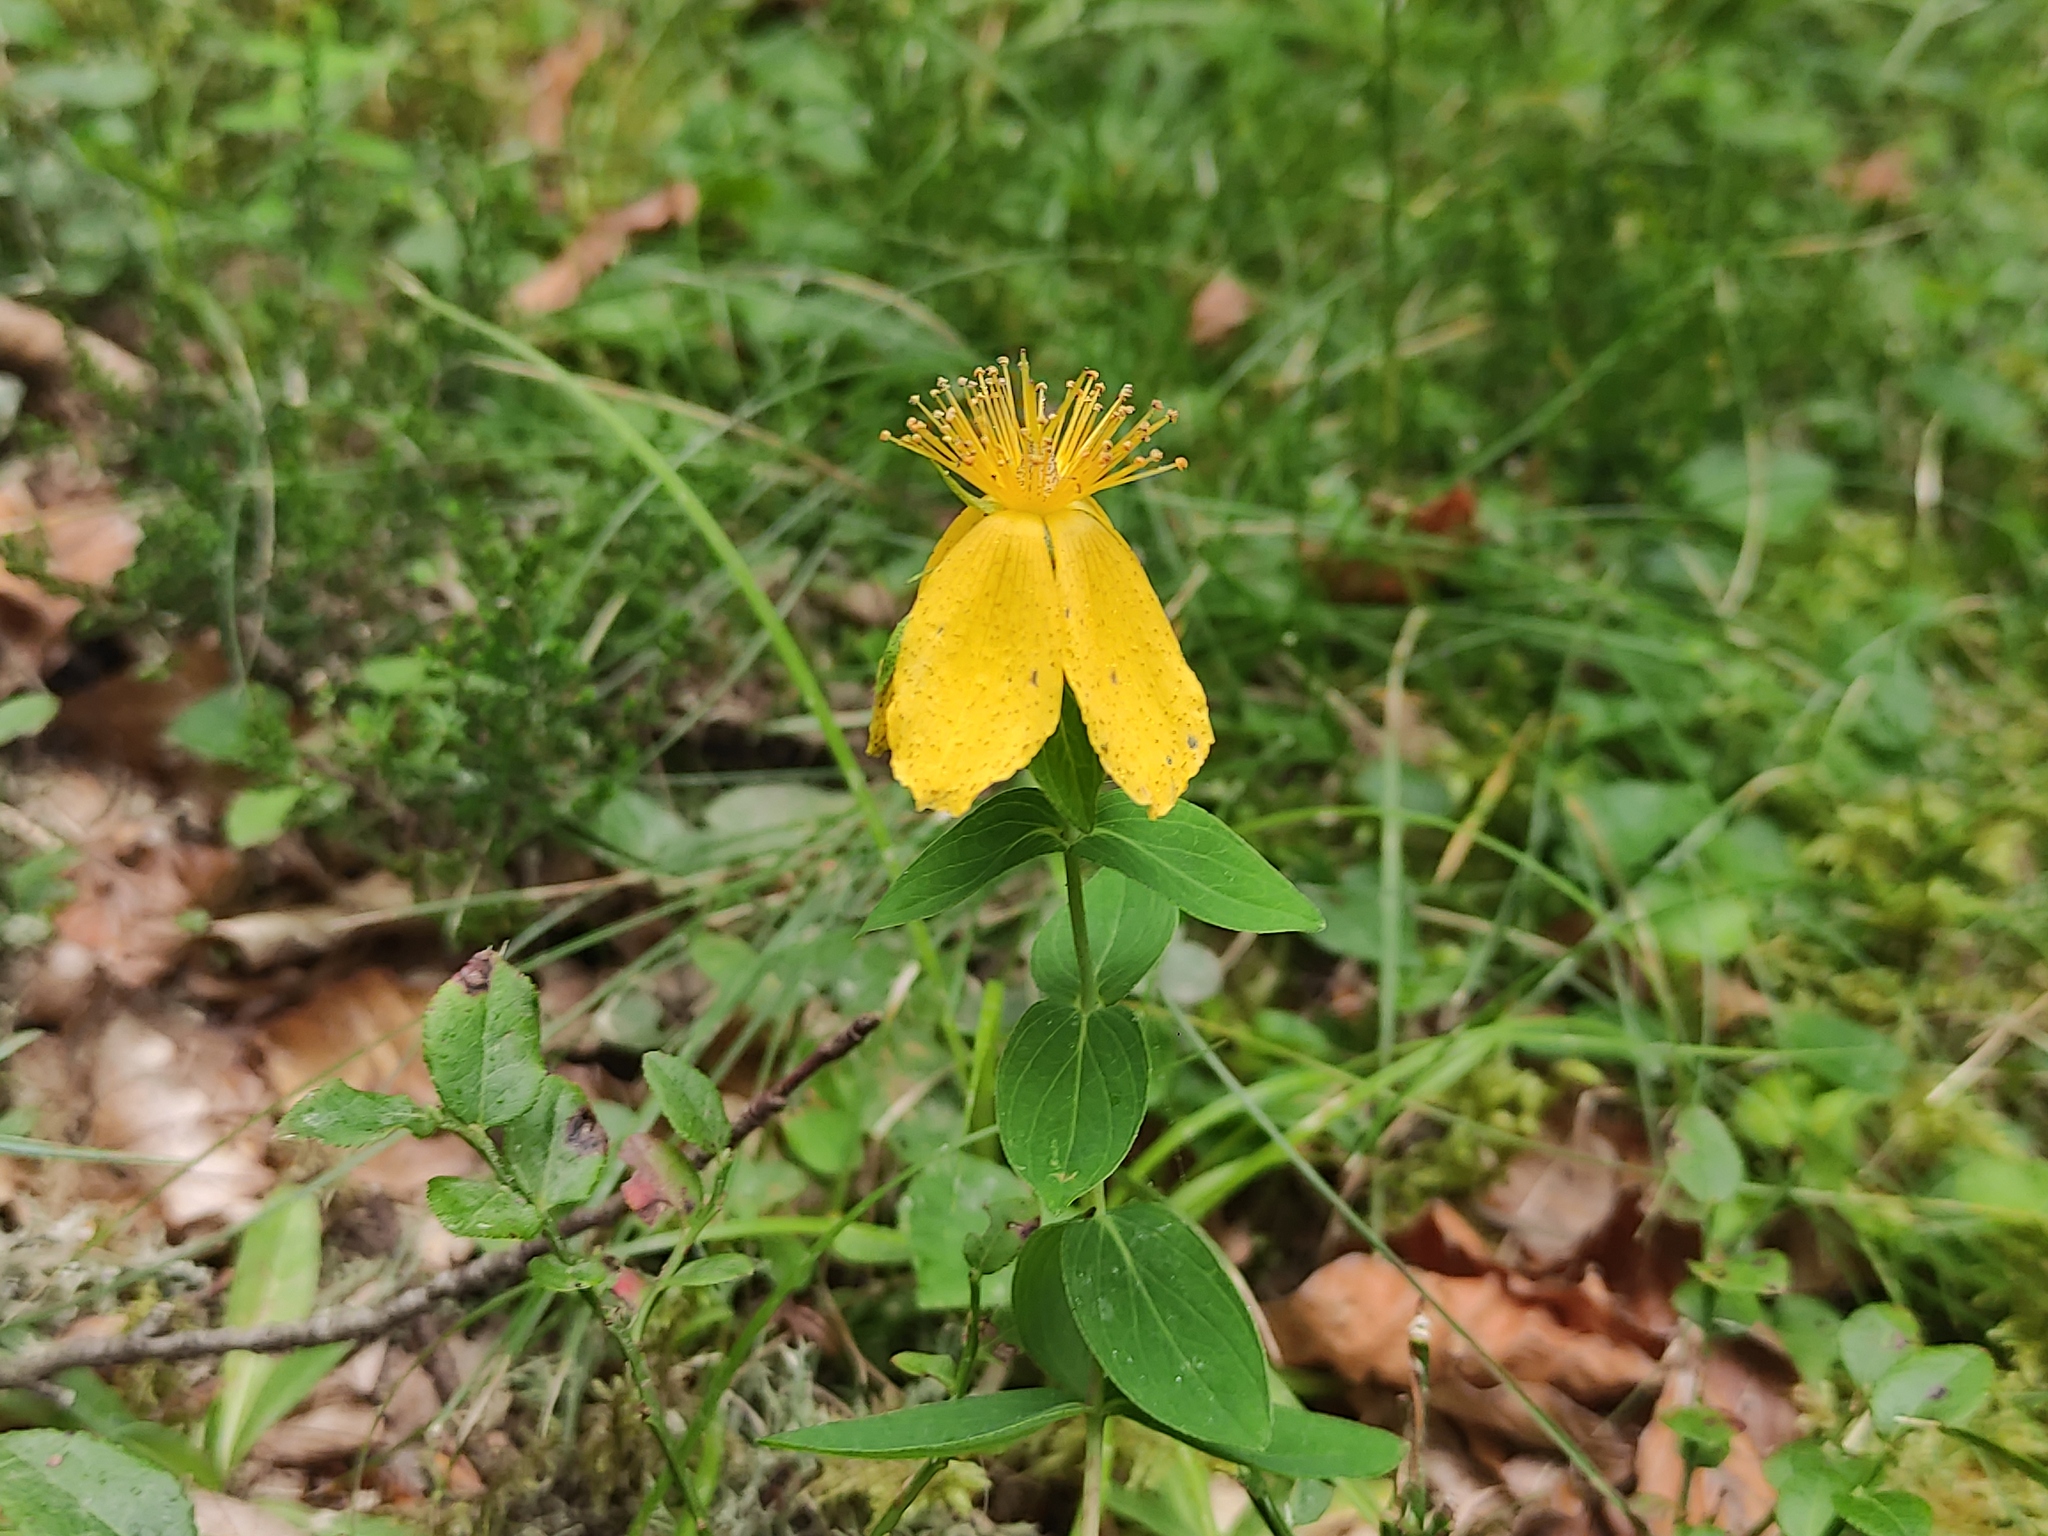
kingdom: Plantae
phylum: Tracheophyta
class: Magnoliopsida
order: Malpighiales
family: Hypericaceae
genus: Hypericum
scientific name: Hypericum richeri
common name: Alpine st john's-wort
